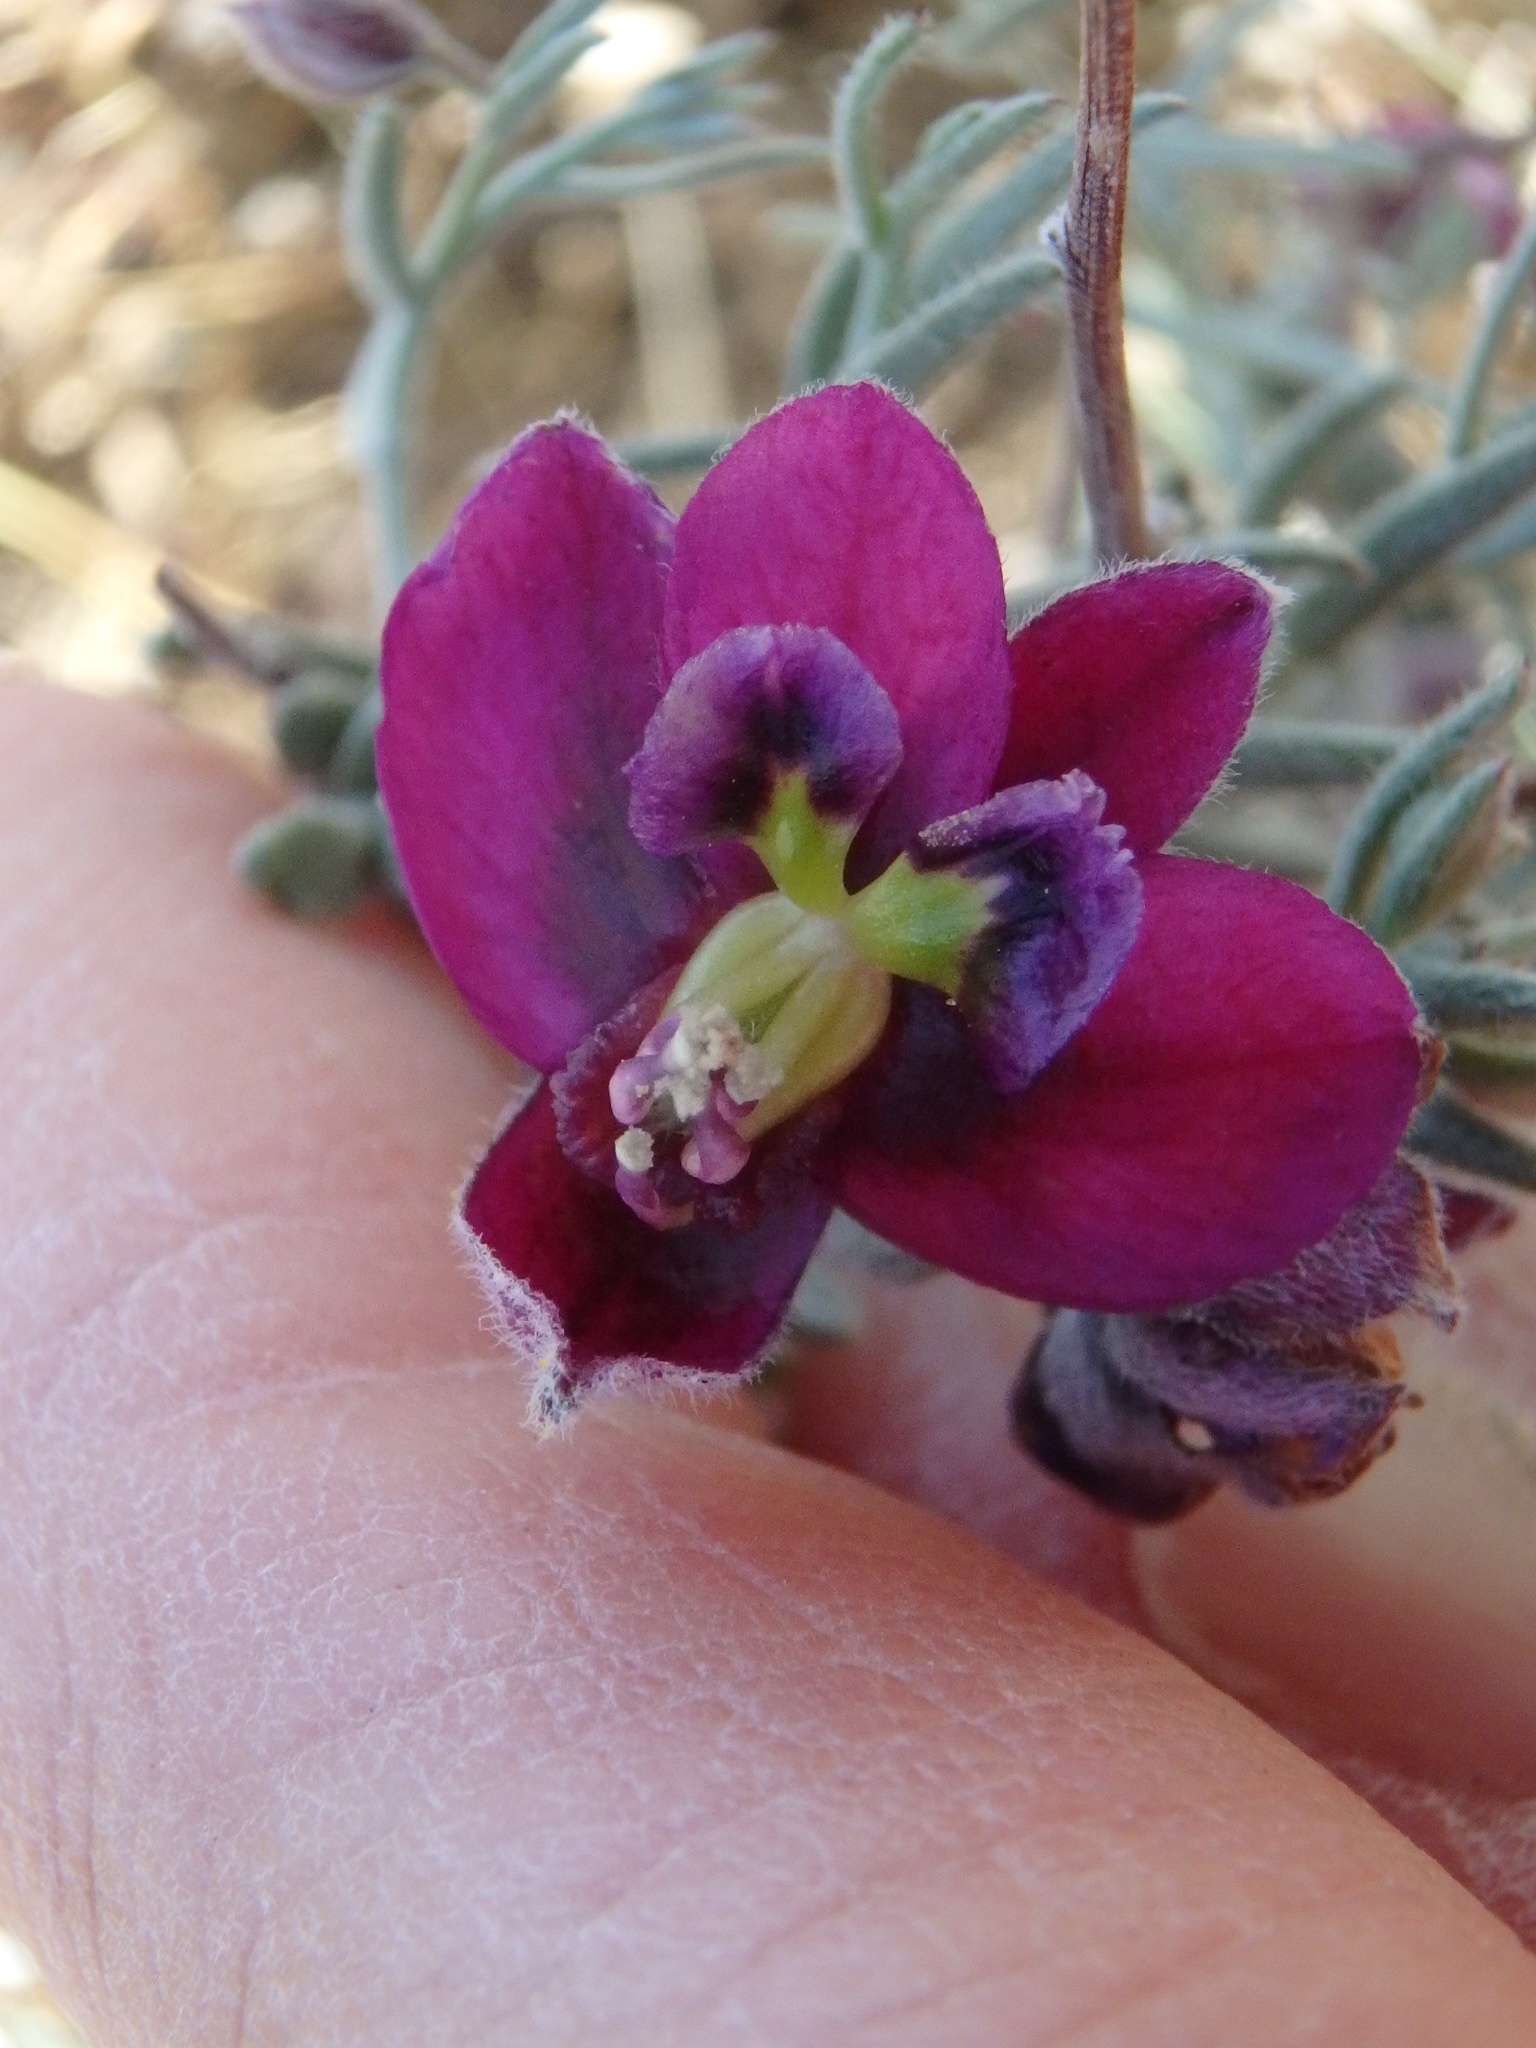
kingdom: Plantae
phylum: Tracheophyta
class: Magnoliopsida
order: Zygophyllales
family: Krameriaceae
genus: Krameria
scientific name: Krameria erecta
